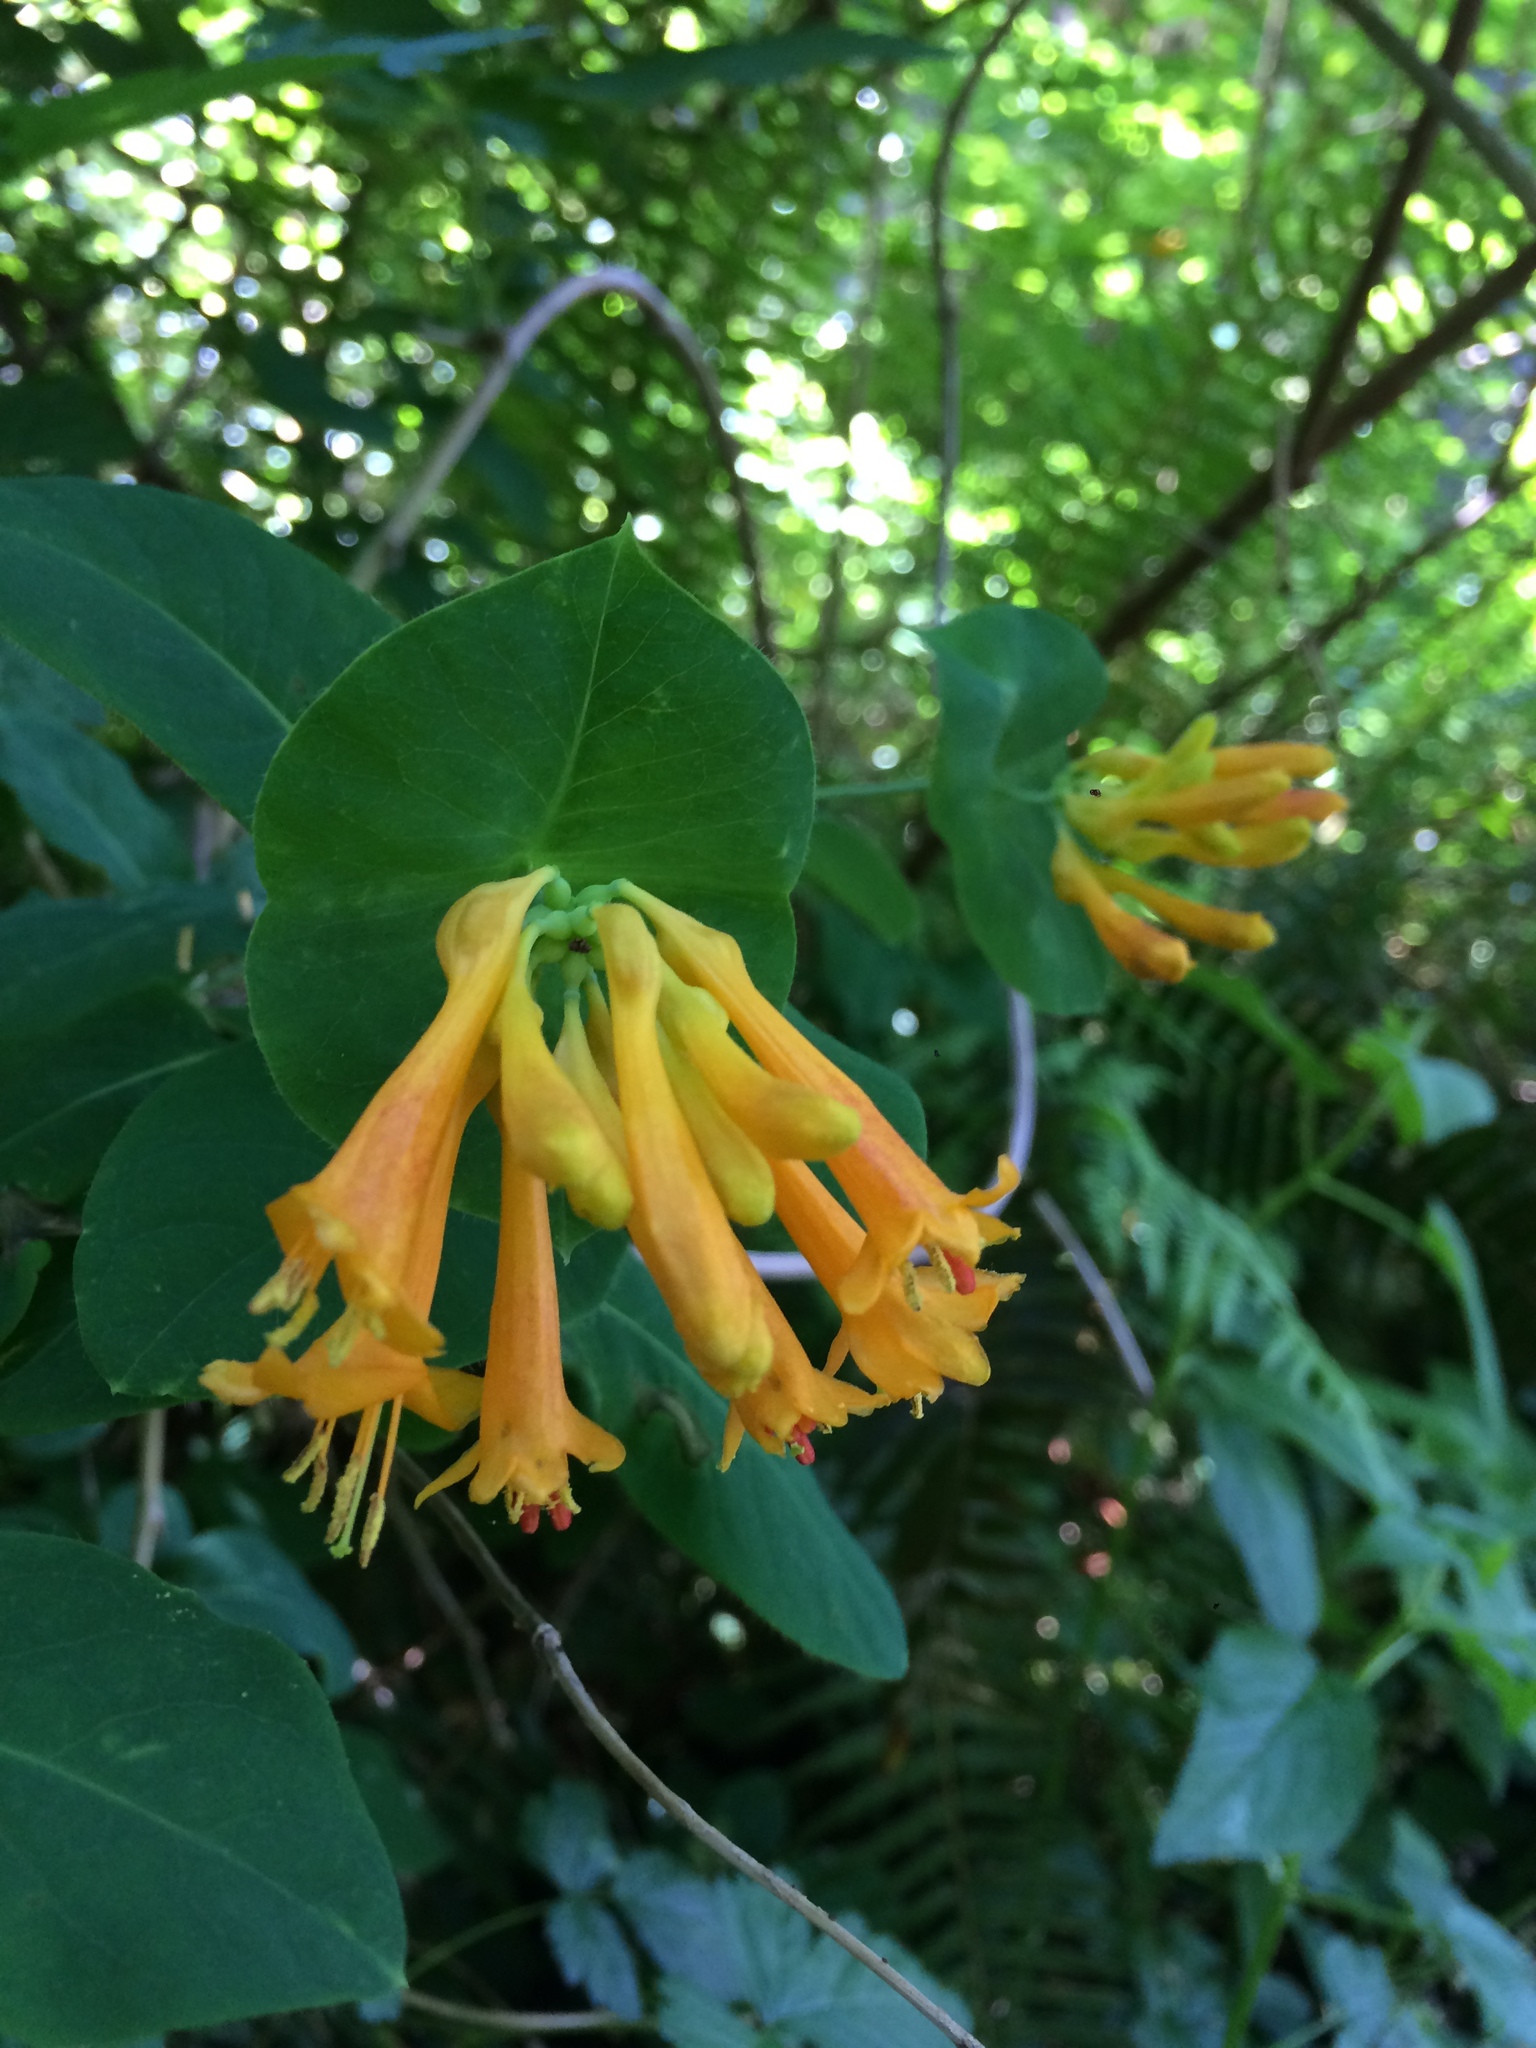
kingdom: Plantae
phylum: Tracheophyta
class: Magnoliopsida
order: Dipsacales
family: Caprifoliaceae
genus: Lonicera
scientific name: Lonicera ciliosa
